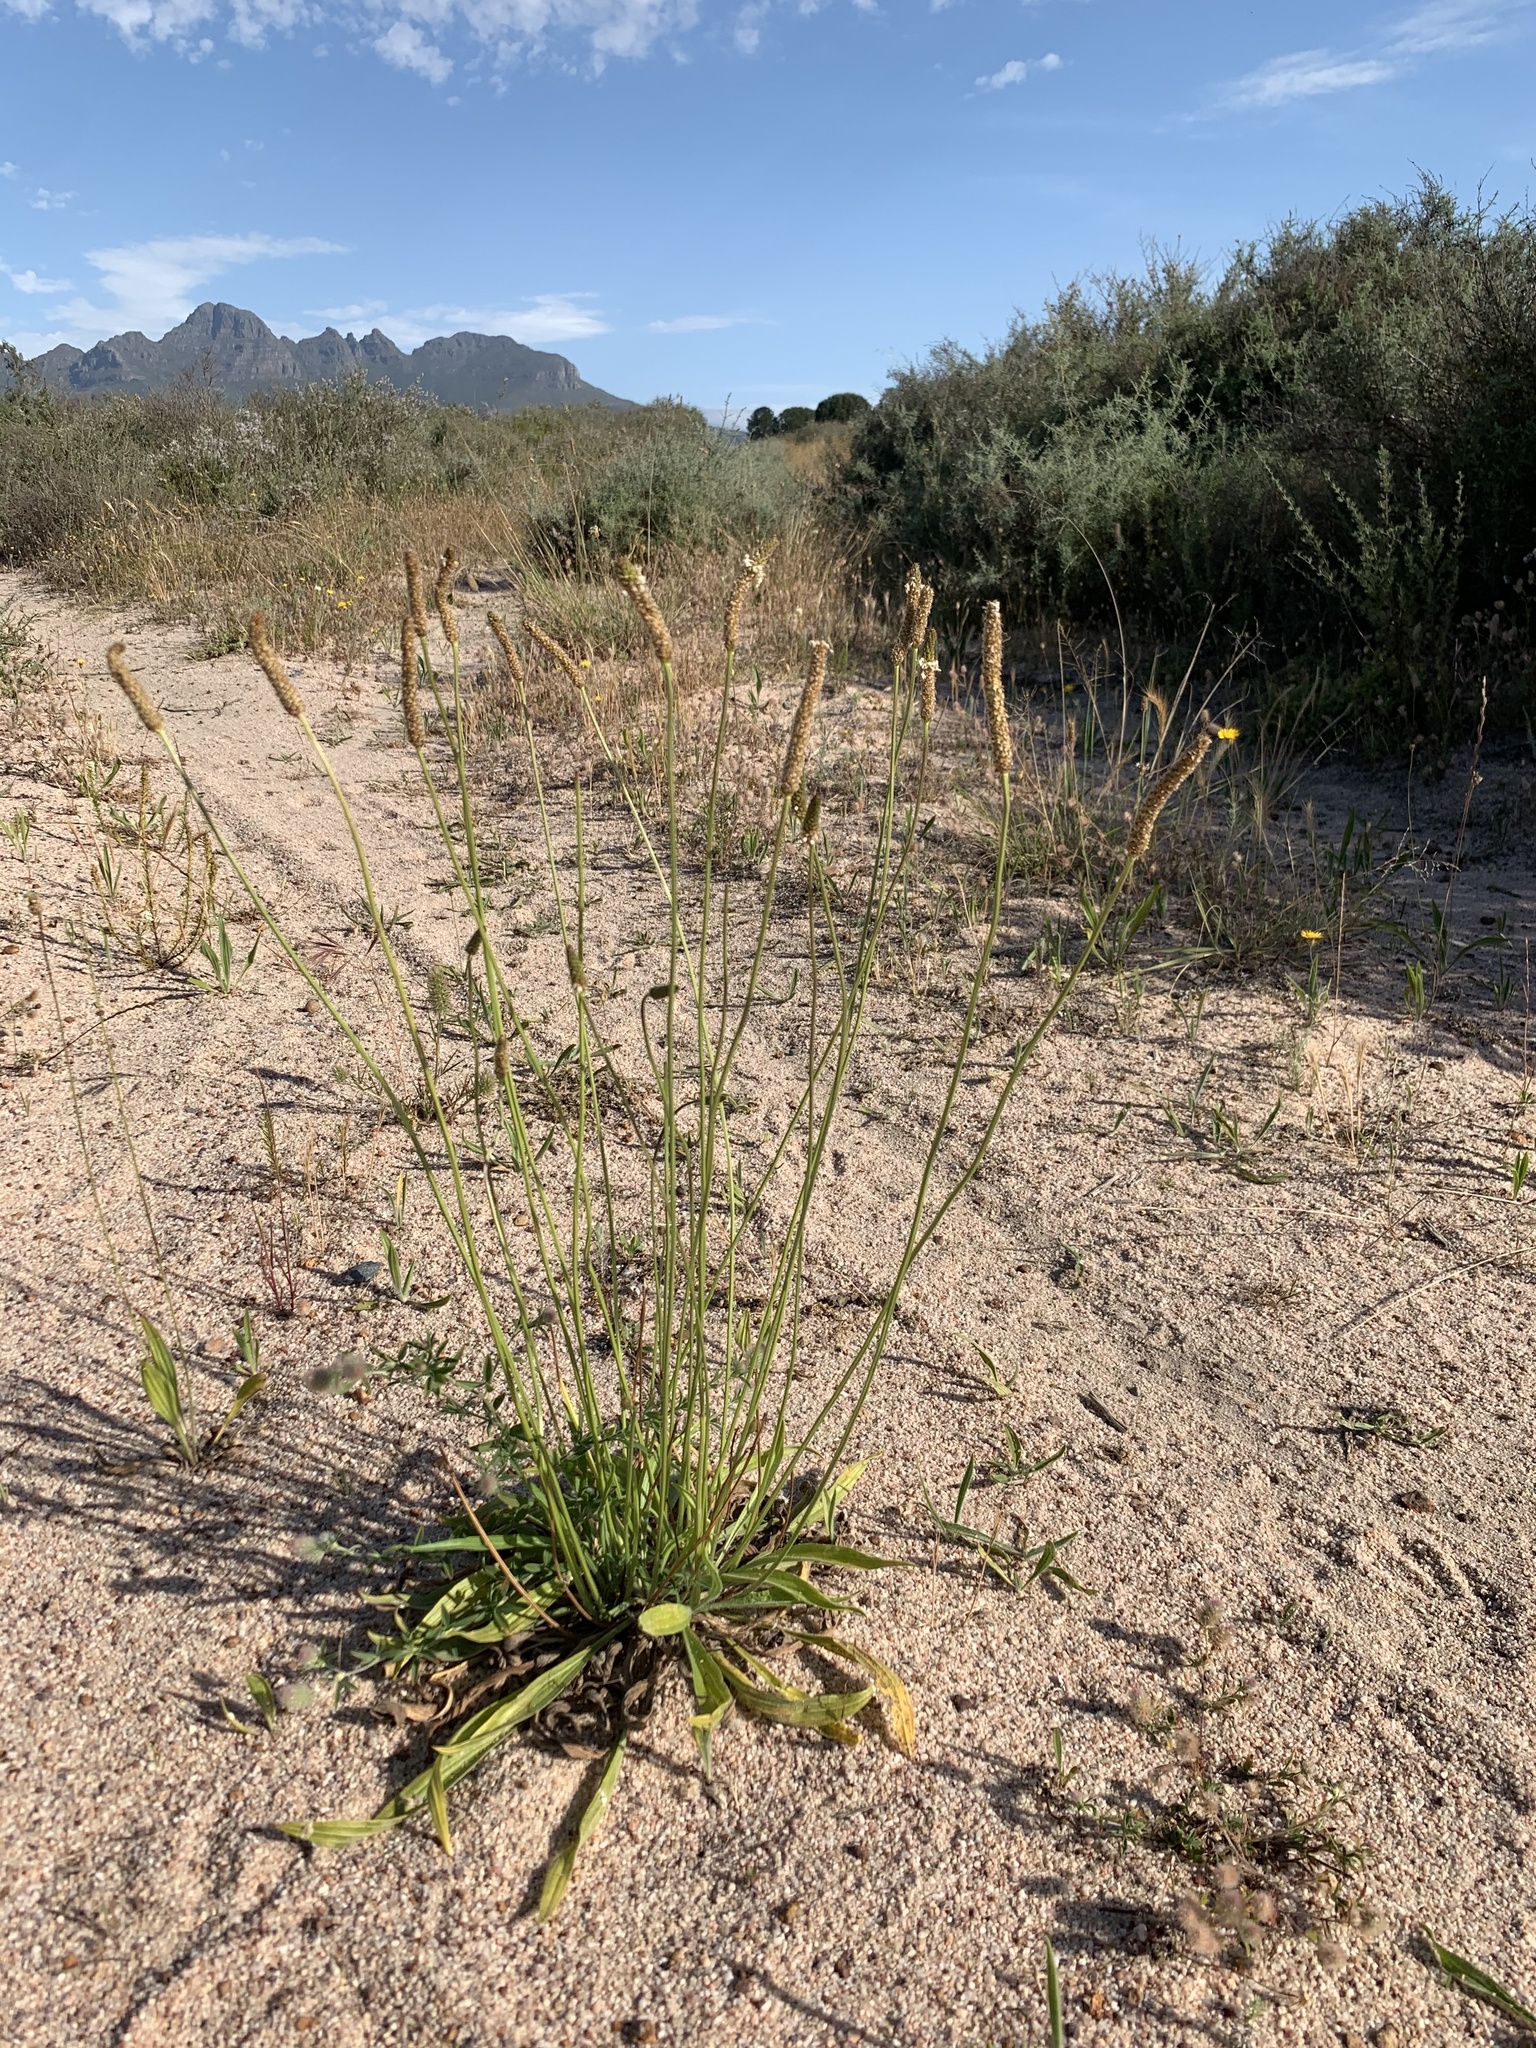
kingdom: Plantae
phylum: Tracheophyta
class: Magnoliopsida
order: Lamiales
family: Plantaginaceae
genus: Plantago
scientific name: Plantago lanceolata
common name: Ribwort plantain
